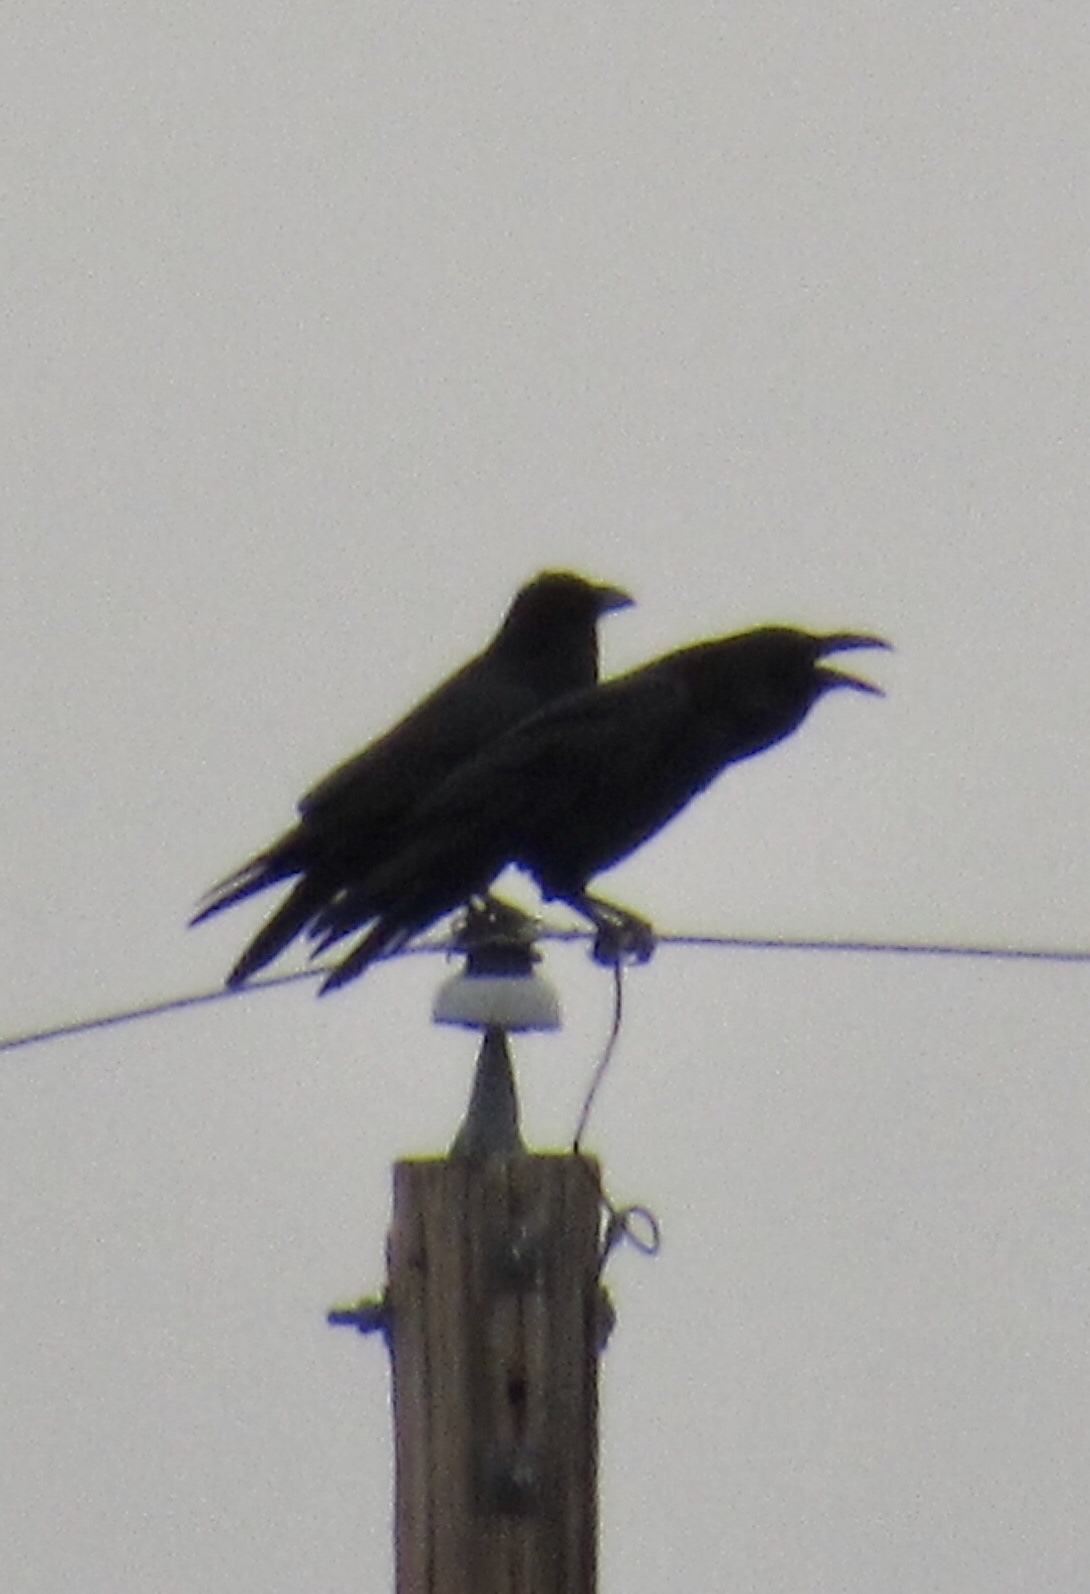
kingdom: Animalia
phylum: Chordata
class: Aves
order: Passeriformes
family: Corvidae
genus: Corvus
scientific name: Corvus corax
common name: Common raven
